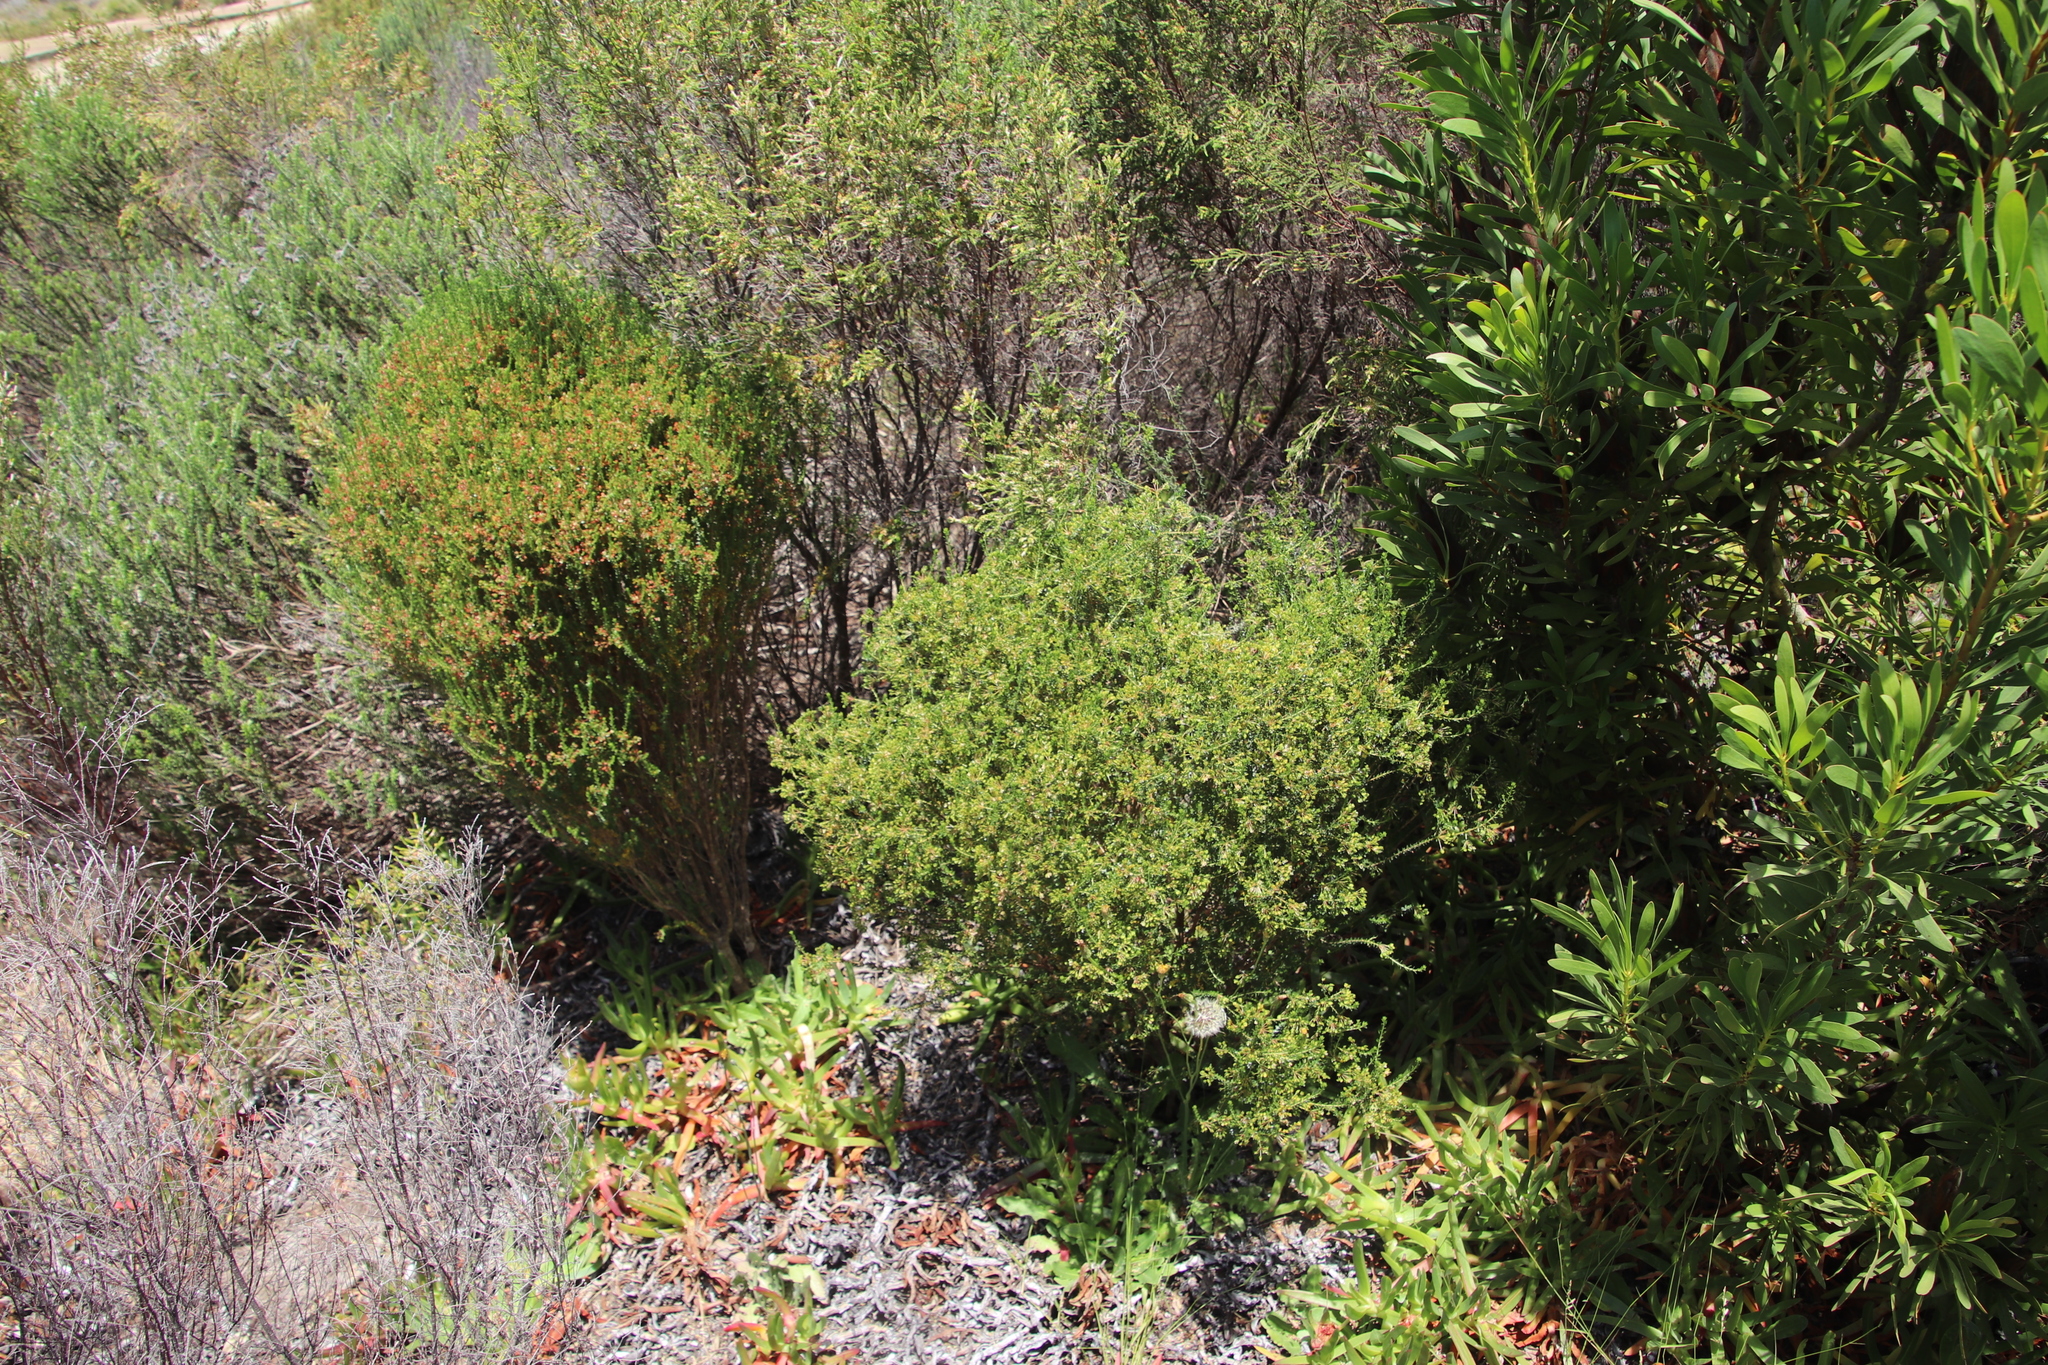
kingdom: Plantae
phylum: Tracheophyta
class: Magnoliopsida
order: Sapindales
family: Rutaceae
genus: Agathosma
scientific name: Agathosma glabrata
